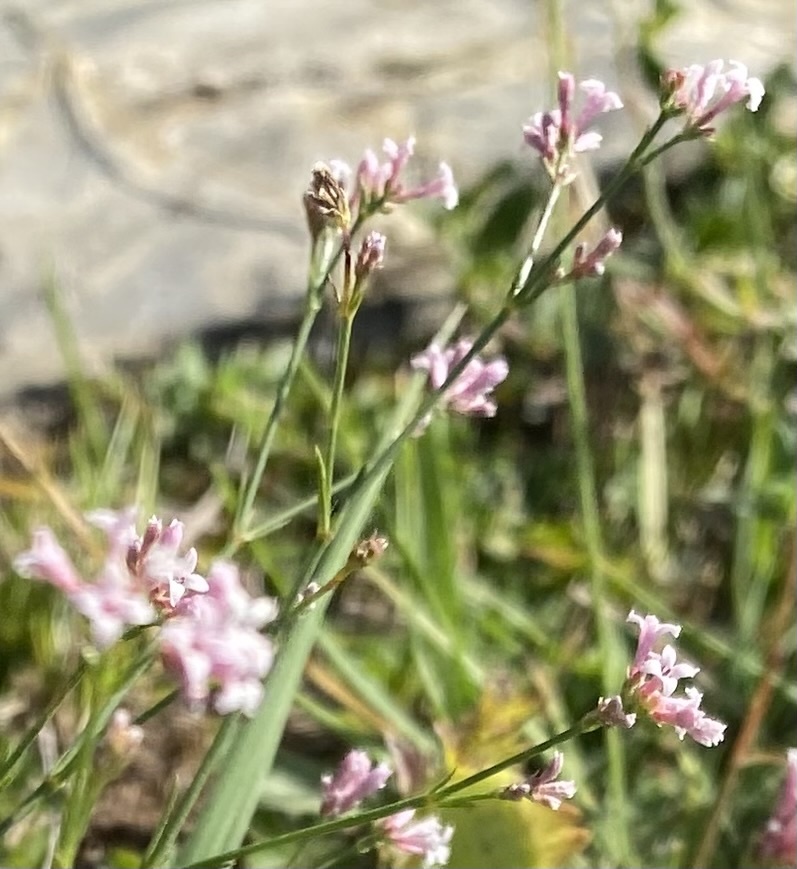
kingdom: Plantae
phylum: Tracheophyta
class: Magnoliopsida
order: Gentianales
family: Rubiaceae
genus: Cynanchica
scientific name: Cynanchica pyrenaica
